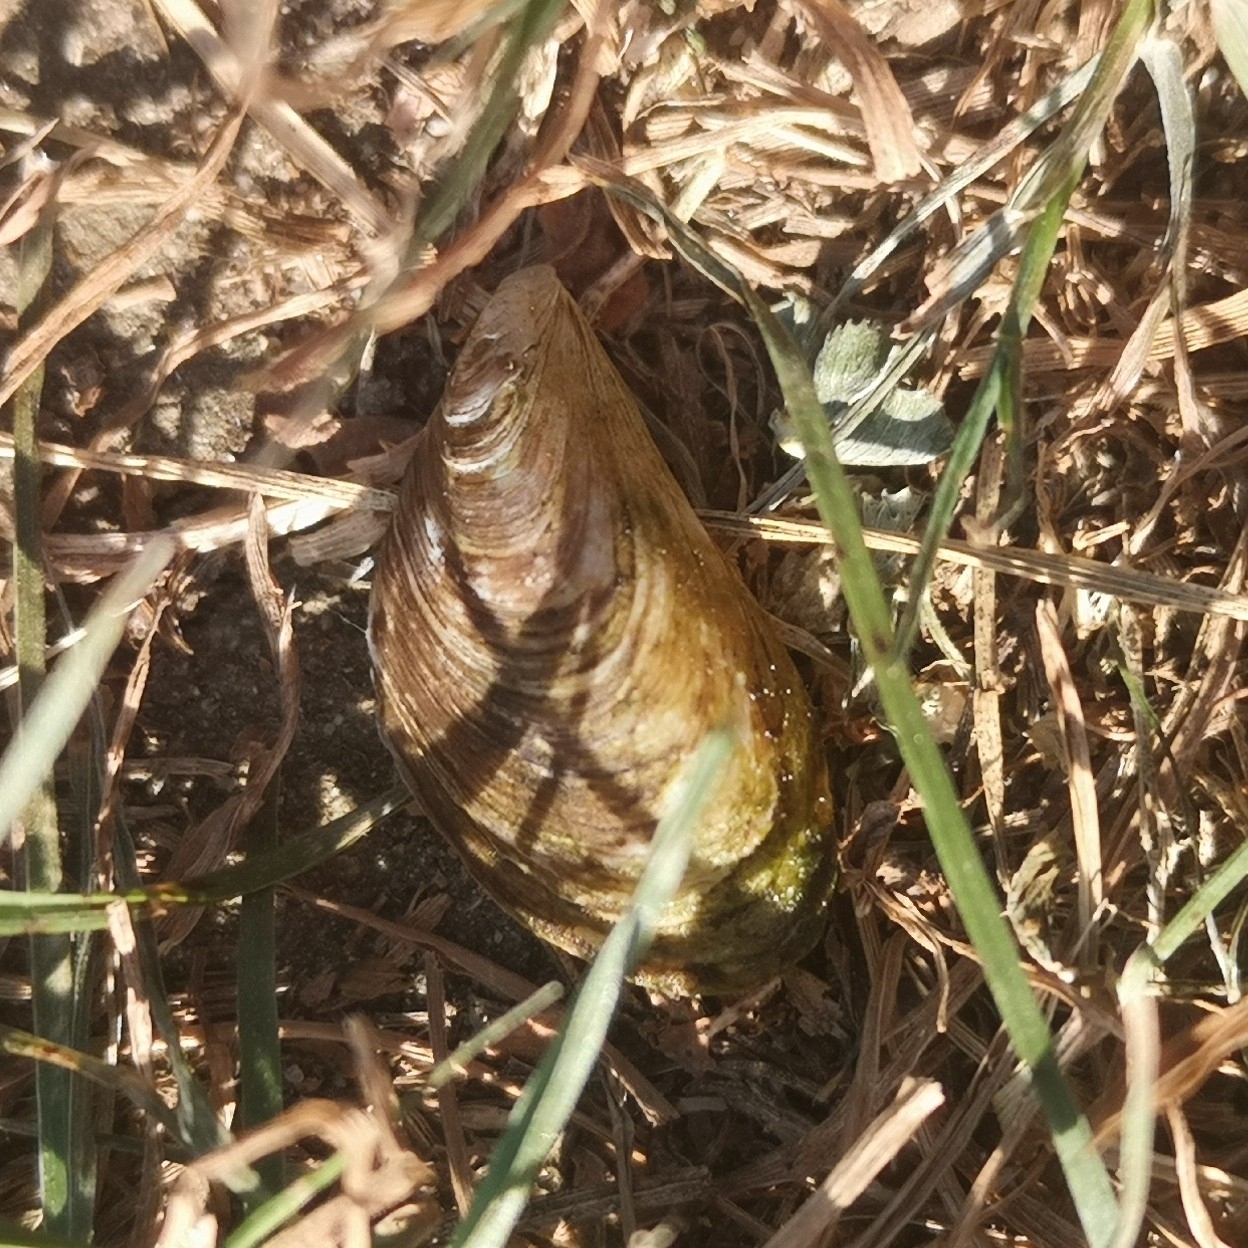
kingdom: Animalia
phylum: Mollusca
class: Bivalvia
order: Myida
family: Dreissenidae
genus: Dreissena
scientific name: Dreissena bugensis
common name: Quagga mussel
